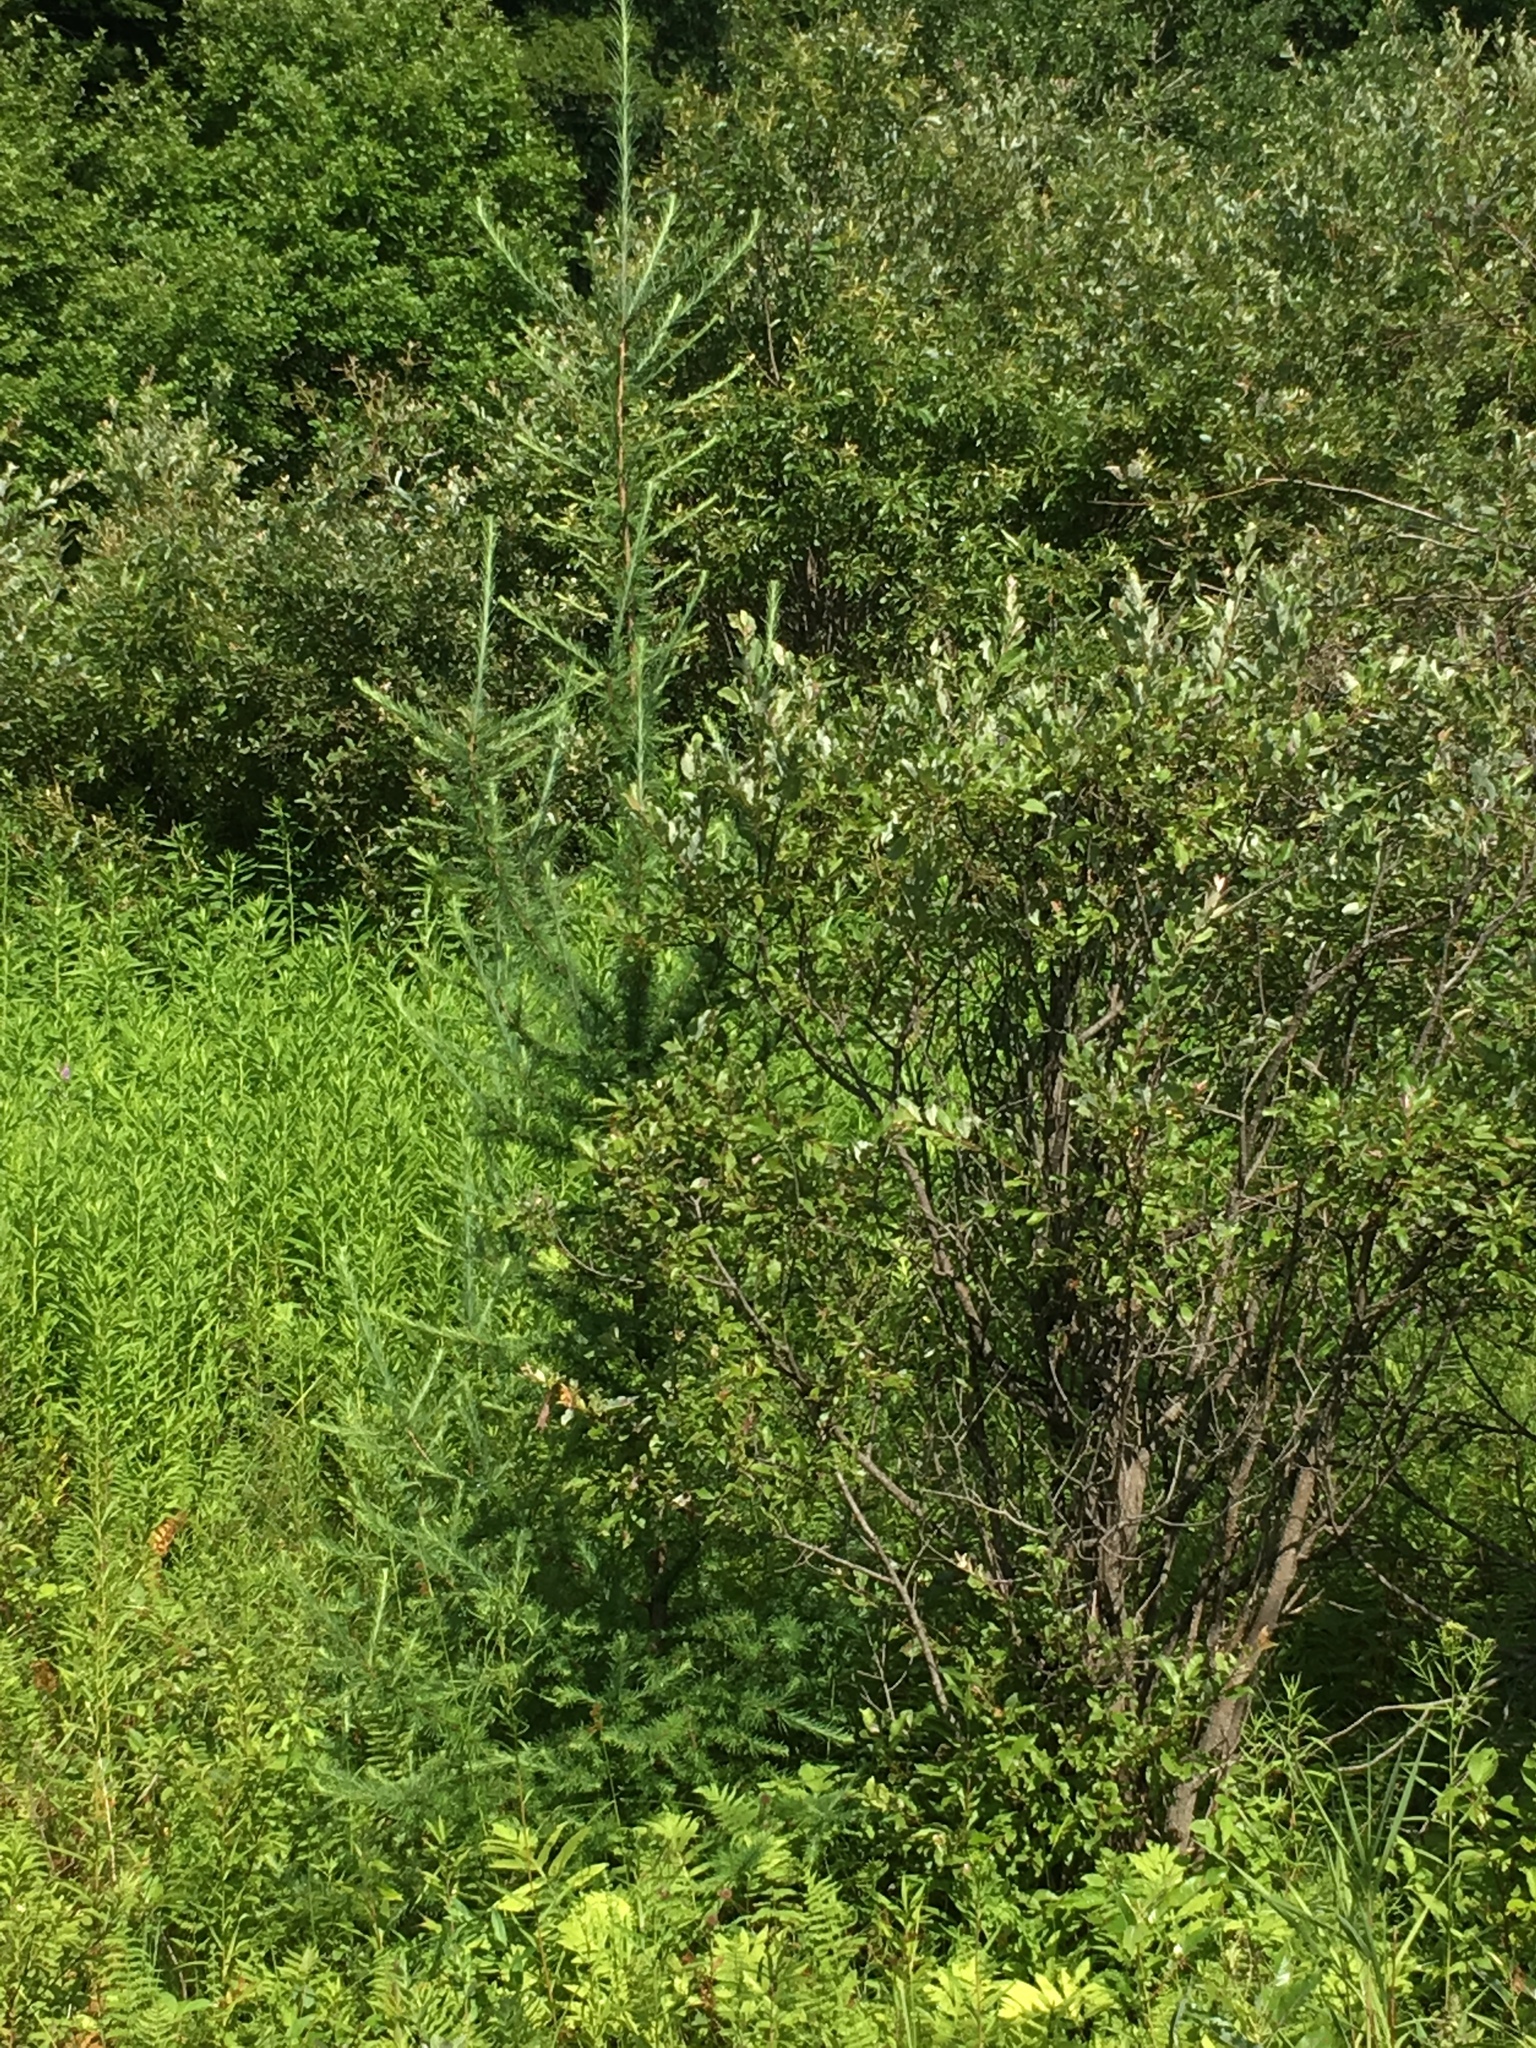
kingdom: Plantae
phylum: Tracheophyta
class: Pinopsida
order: Pinales
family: Pinaceae
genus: Larix
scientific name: Larix laricina
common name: American larch
